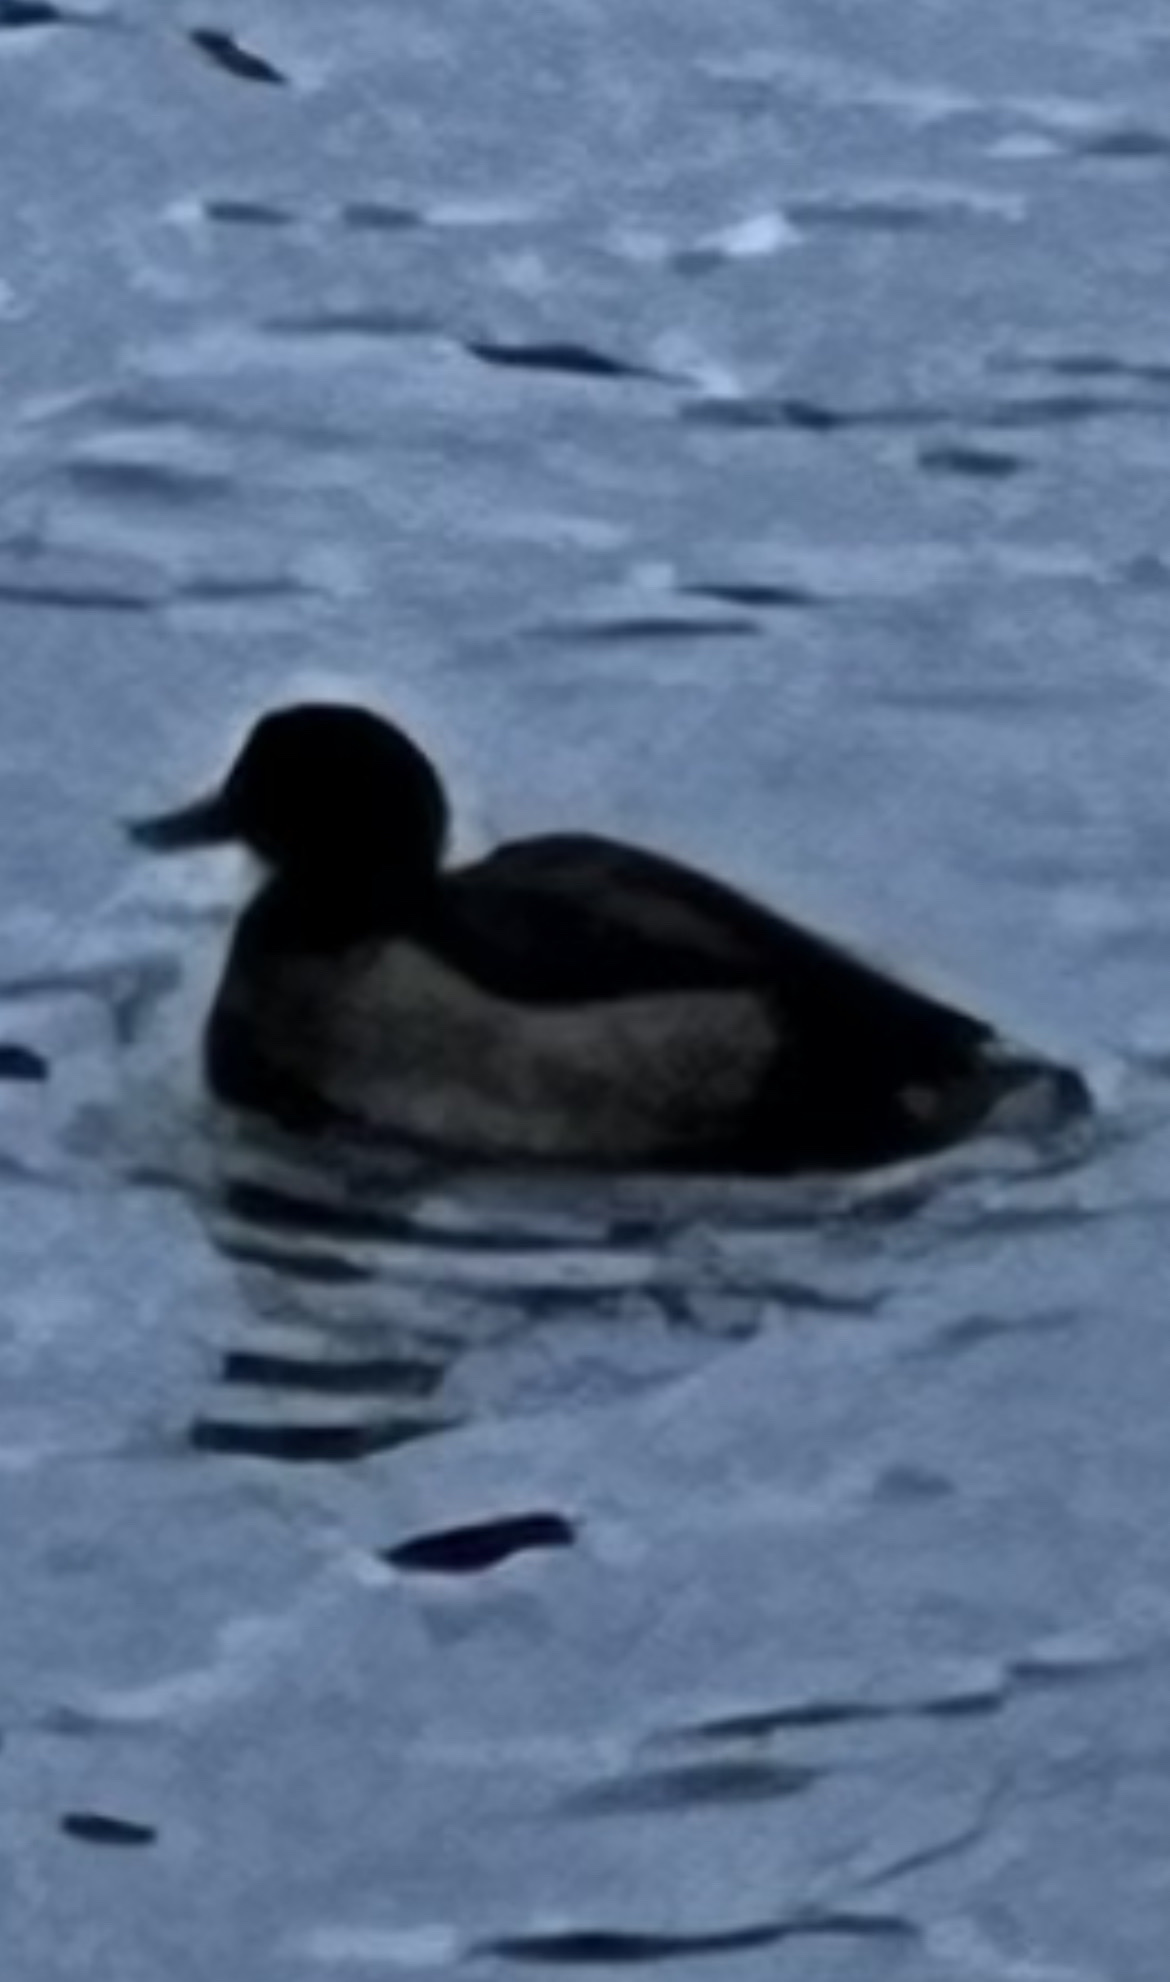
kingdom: Animalia
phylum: Chordata
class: Aves
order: Anseriformes
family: Anatidae
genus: Aythya
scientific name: Aythya nyroca
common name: Ferruginous duck
